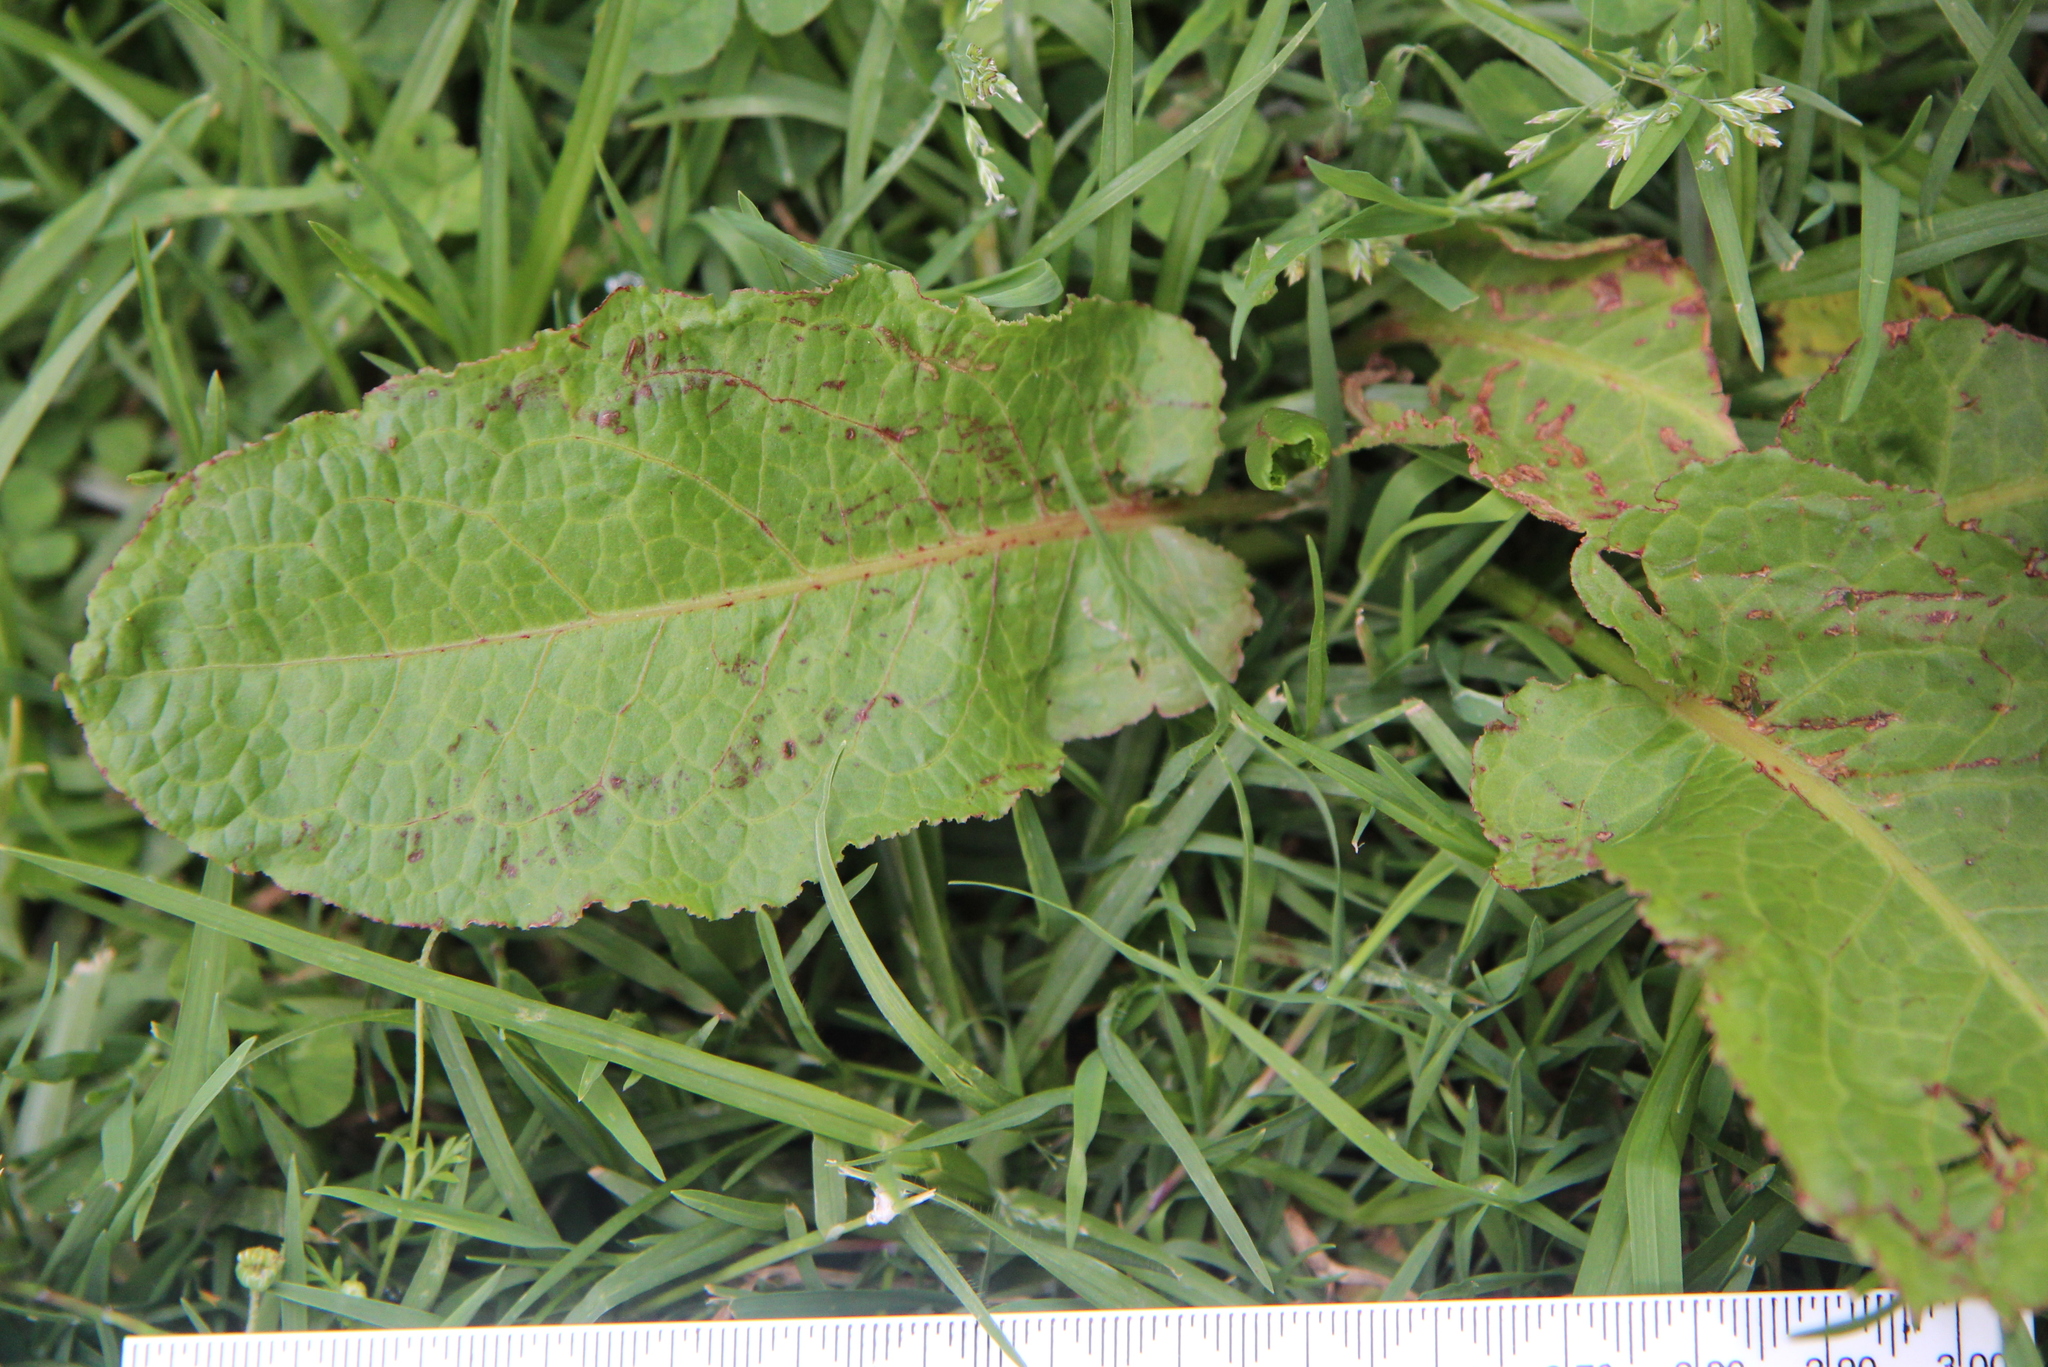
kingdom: Plantae
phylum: Tracheophyta
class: Magnoliopsida
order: Caryophyllales
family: Polygonaceae
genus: Rumex
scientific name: Rumex obtusifolius
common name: Bitter dock
